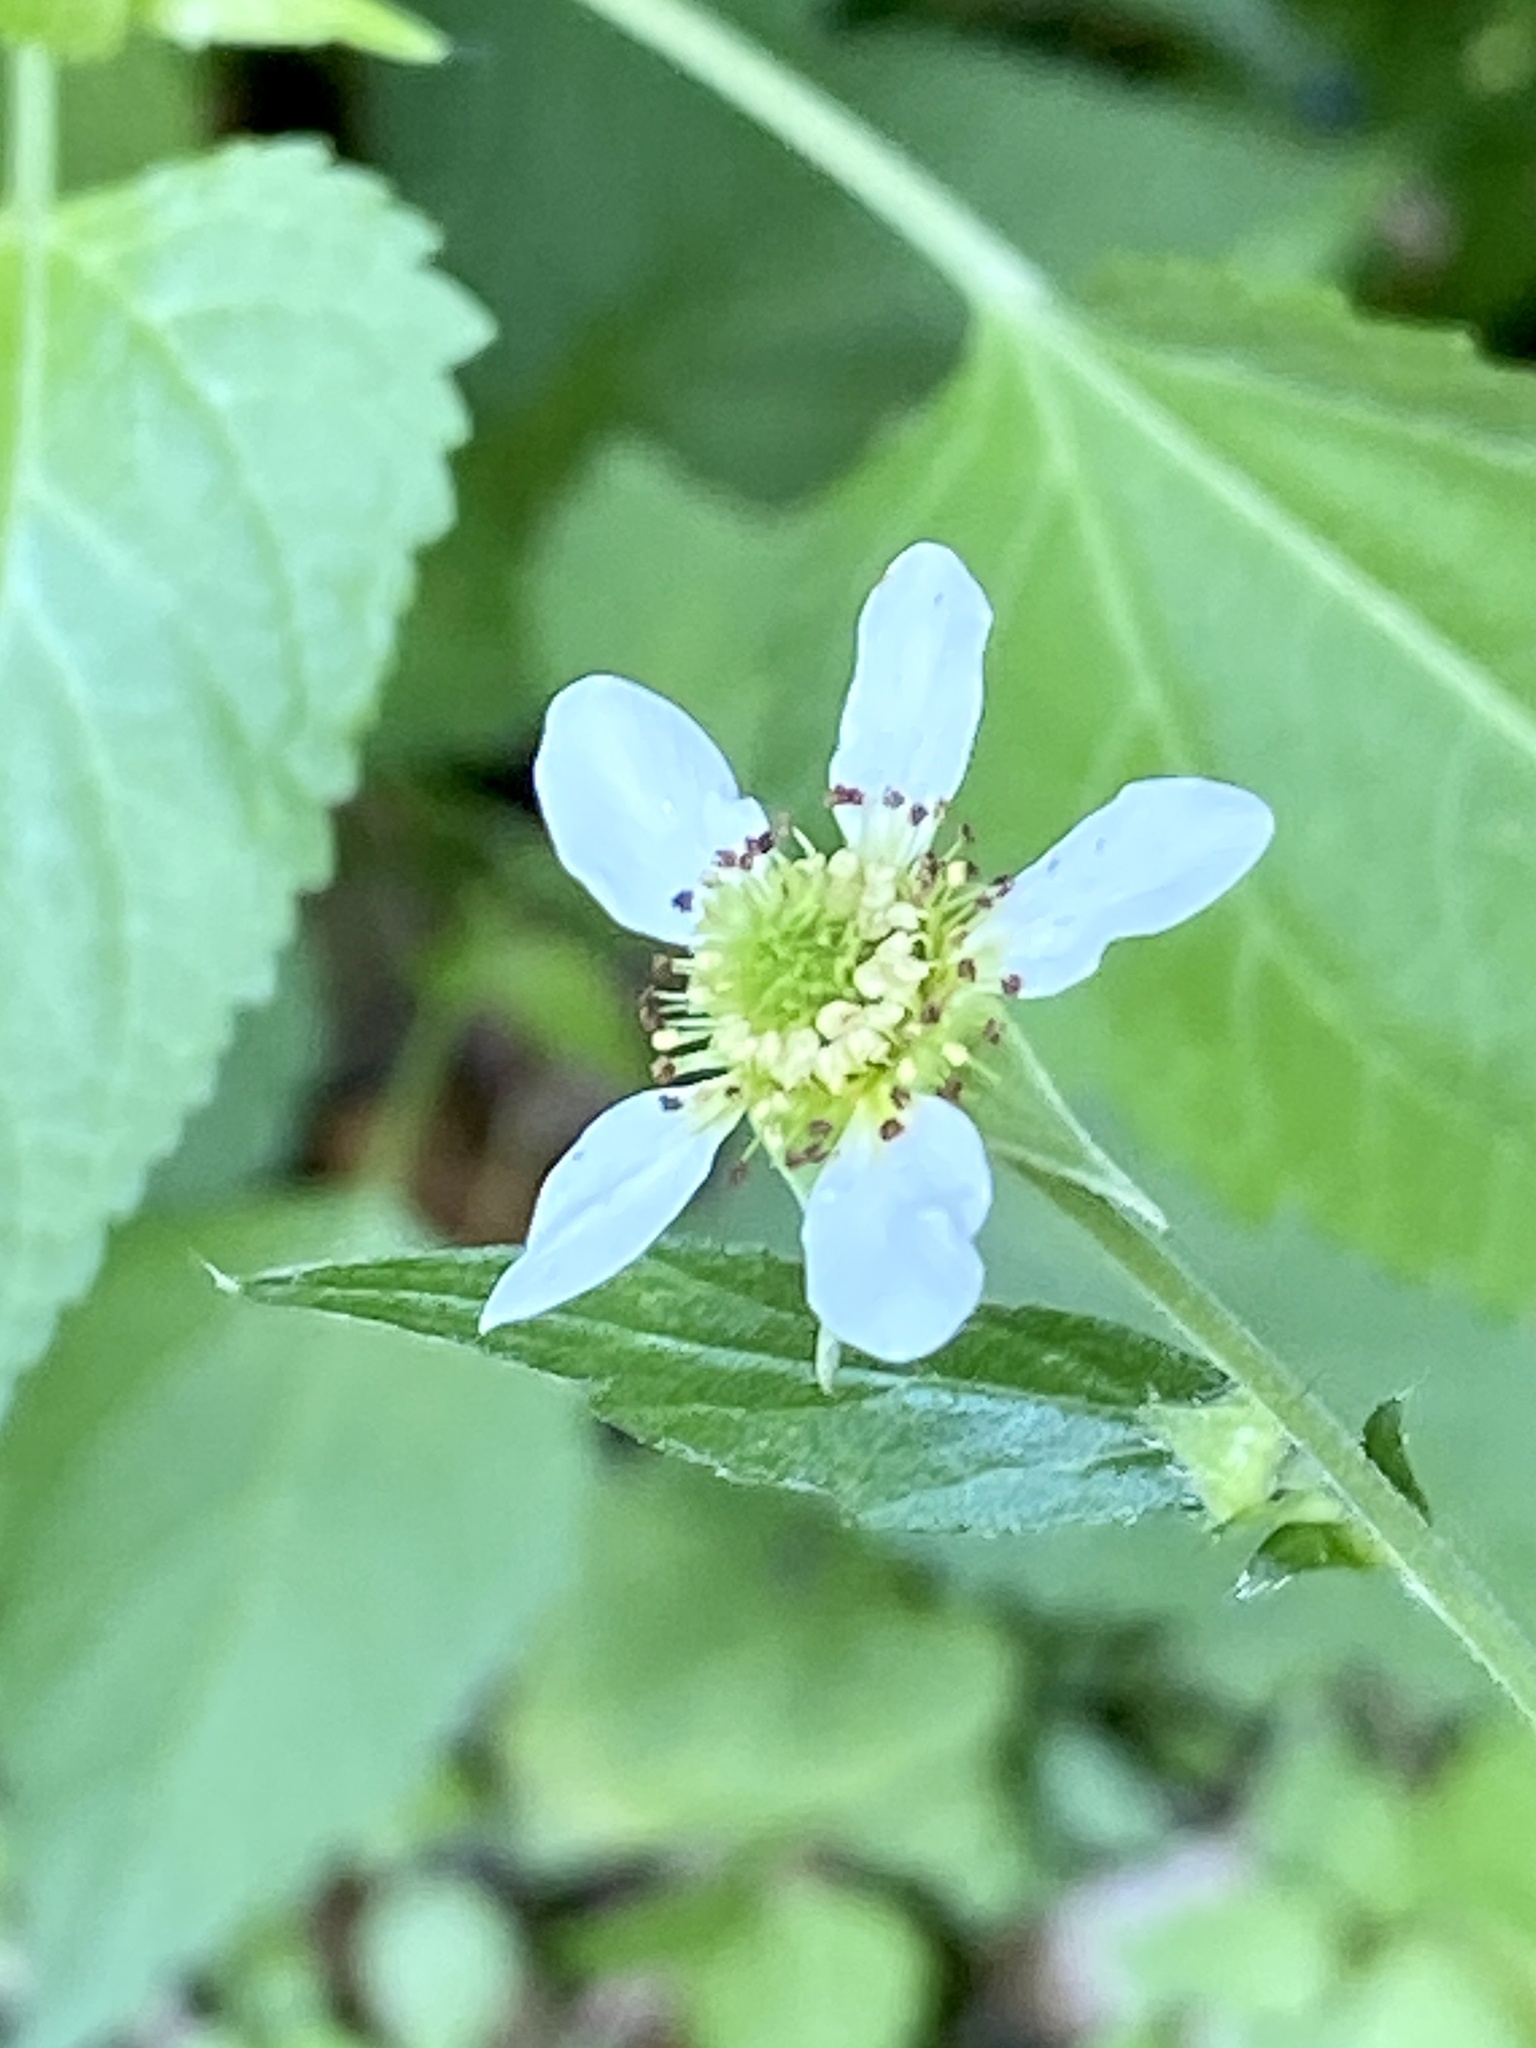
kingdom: Plantae
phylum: Tracheophyta
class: Magnoliopsida
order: Rosales
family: Rosaceae
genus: Geum
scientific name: Geum canadense
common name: White avens
